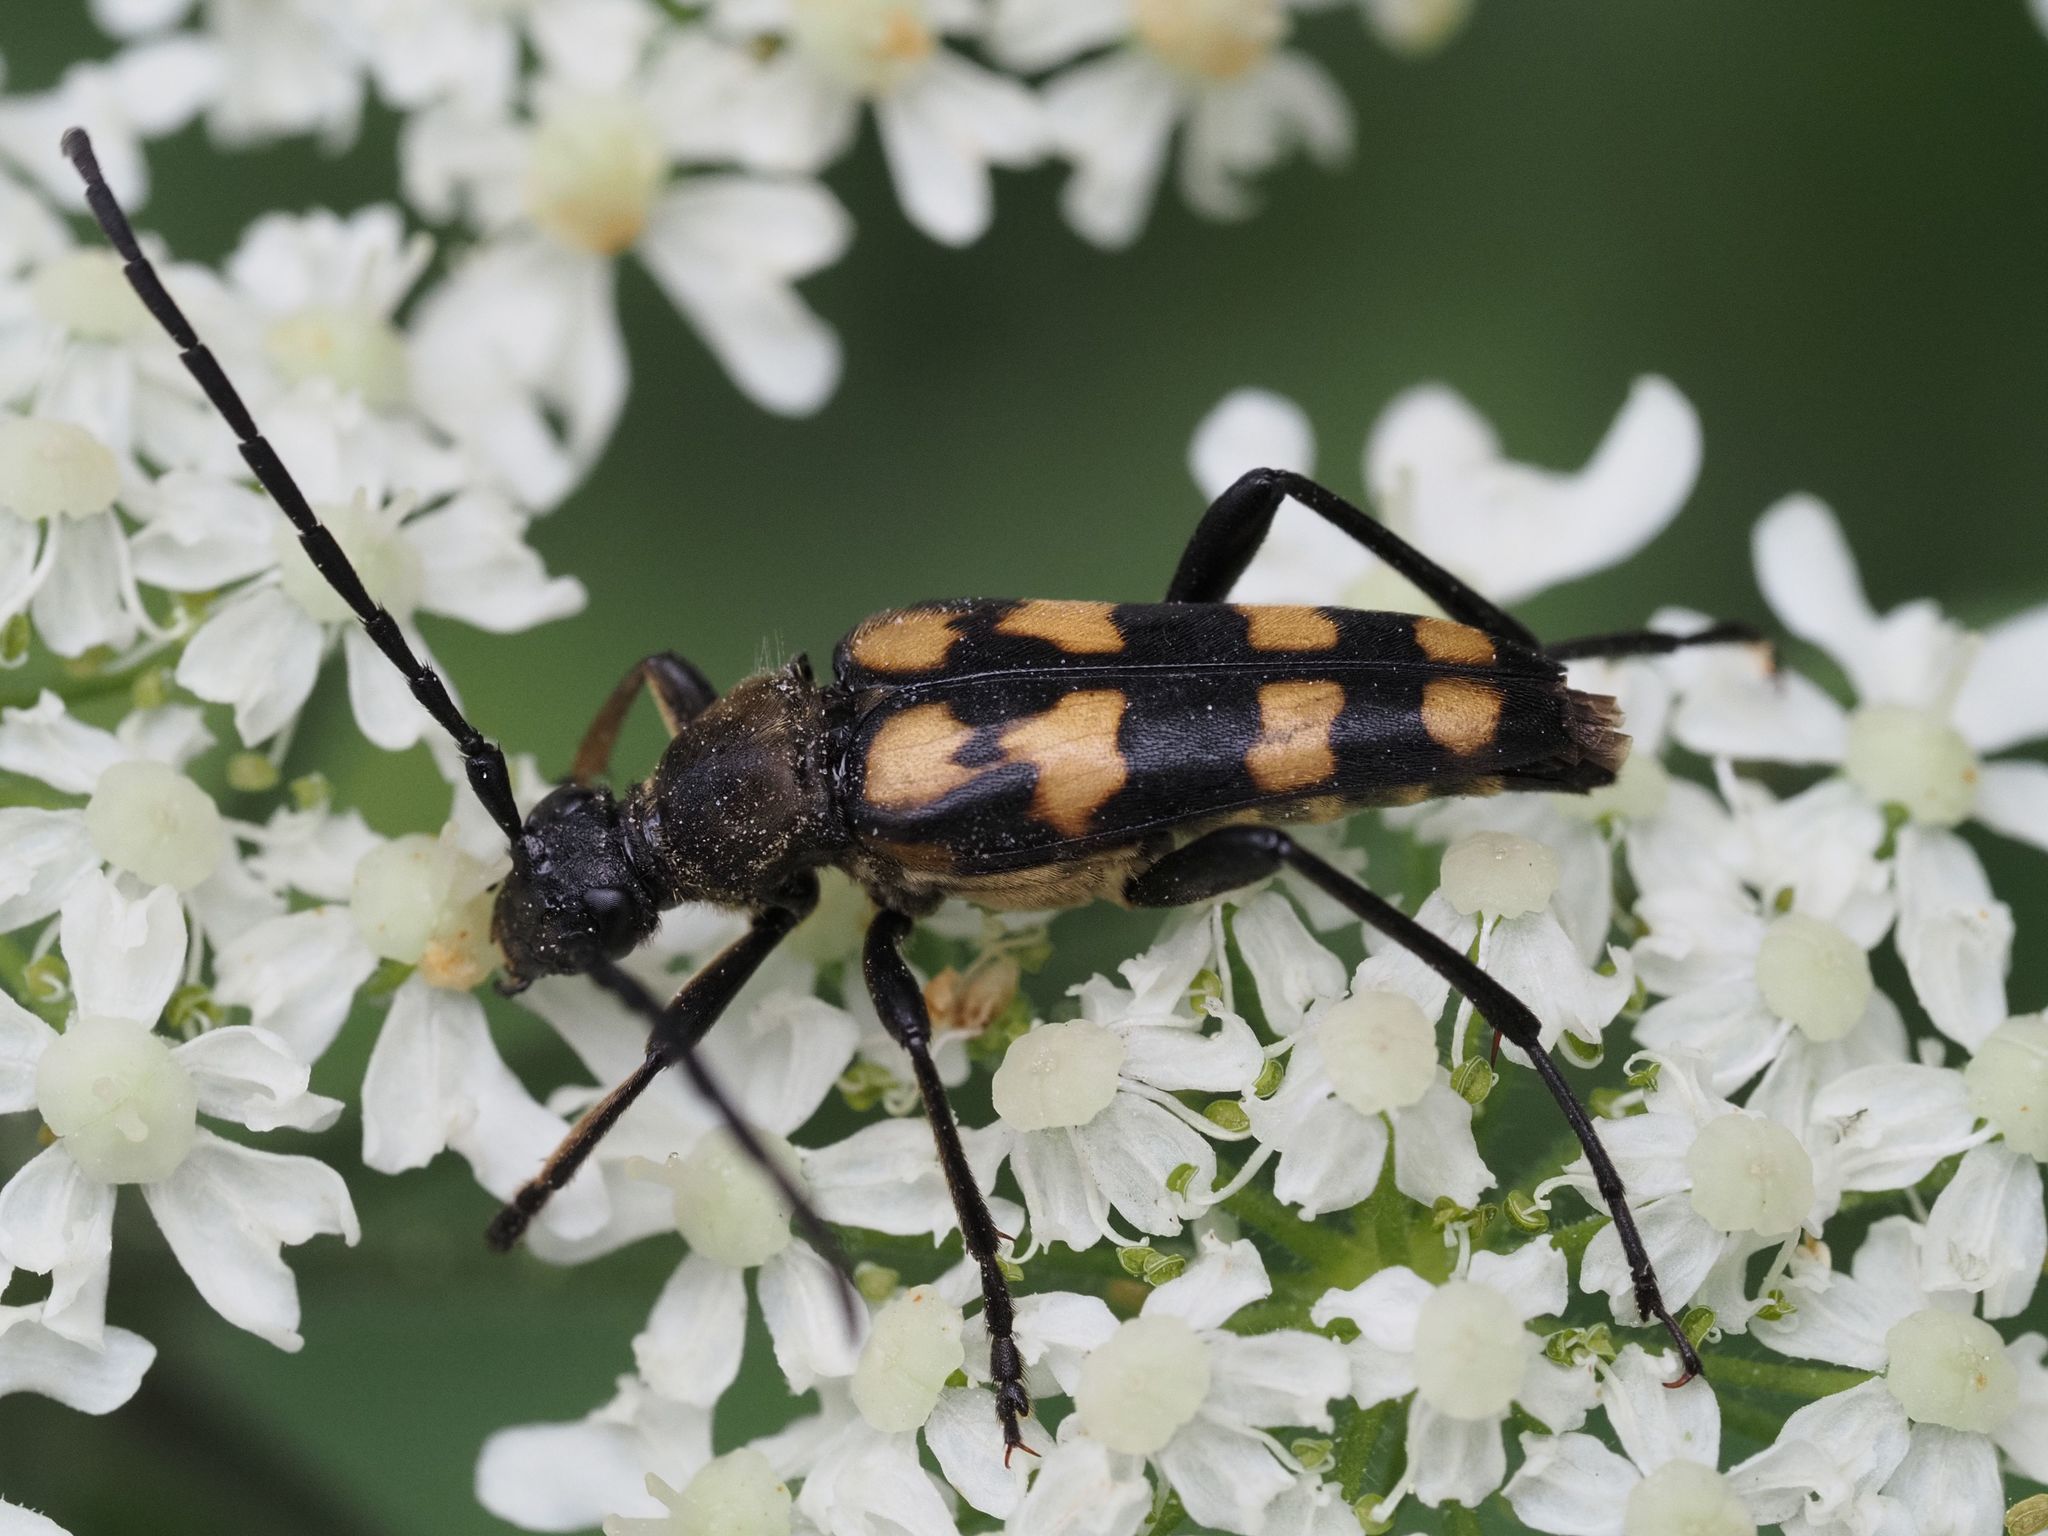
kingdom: Animalia
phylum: Arthropoda
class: Insecta
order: Coleoptera
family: Cerambycidae
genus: Leptura
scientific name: Leptura quadrifasciata
